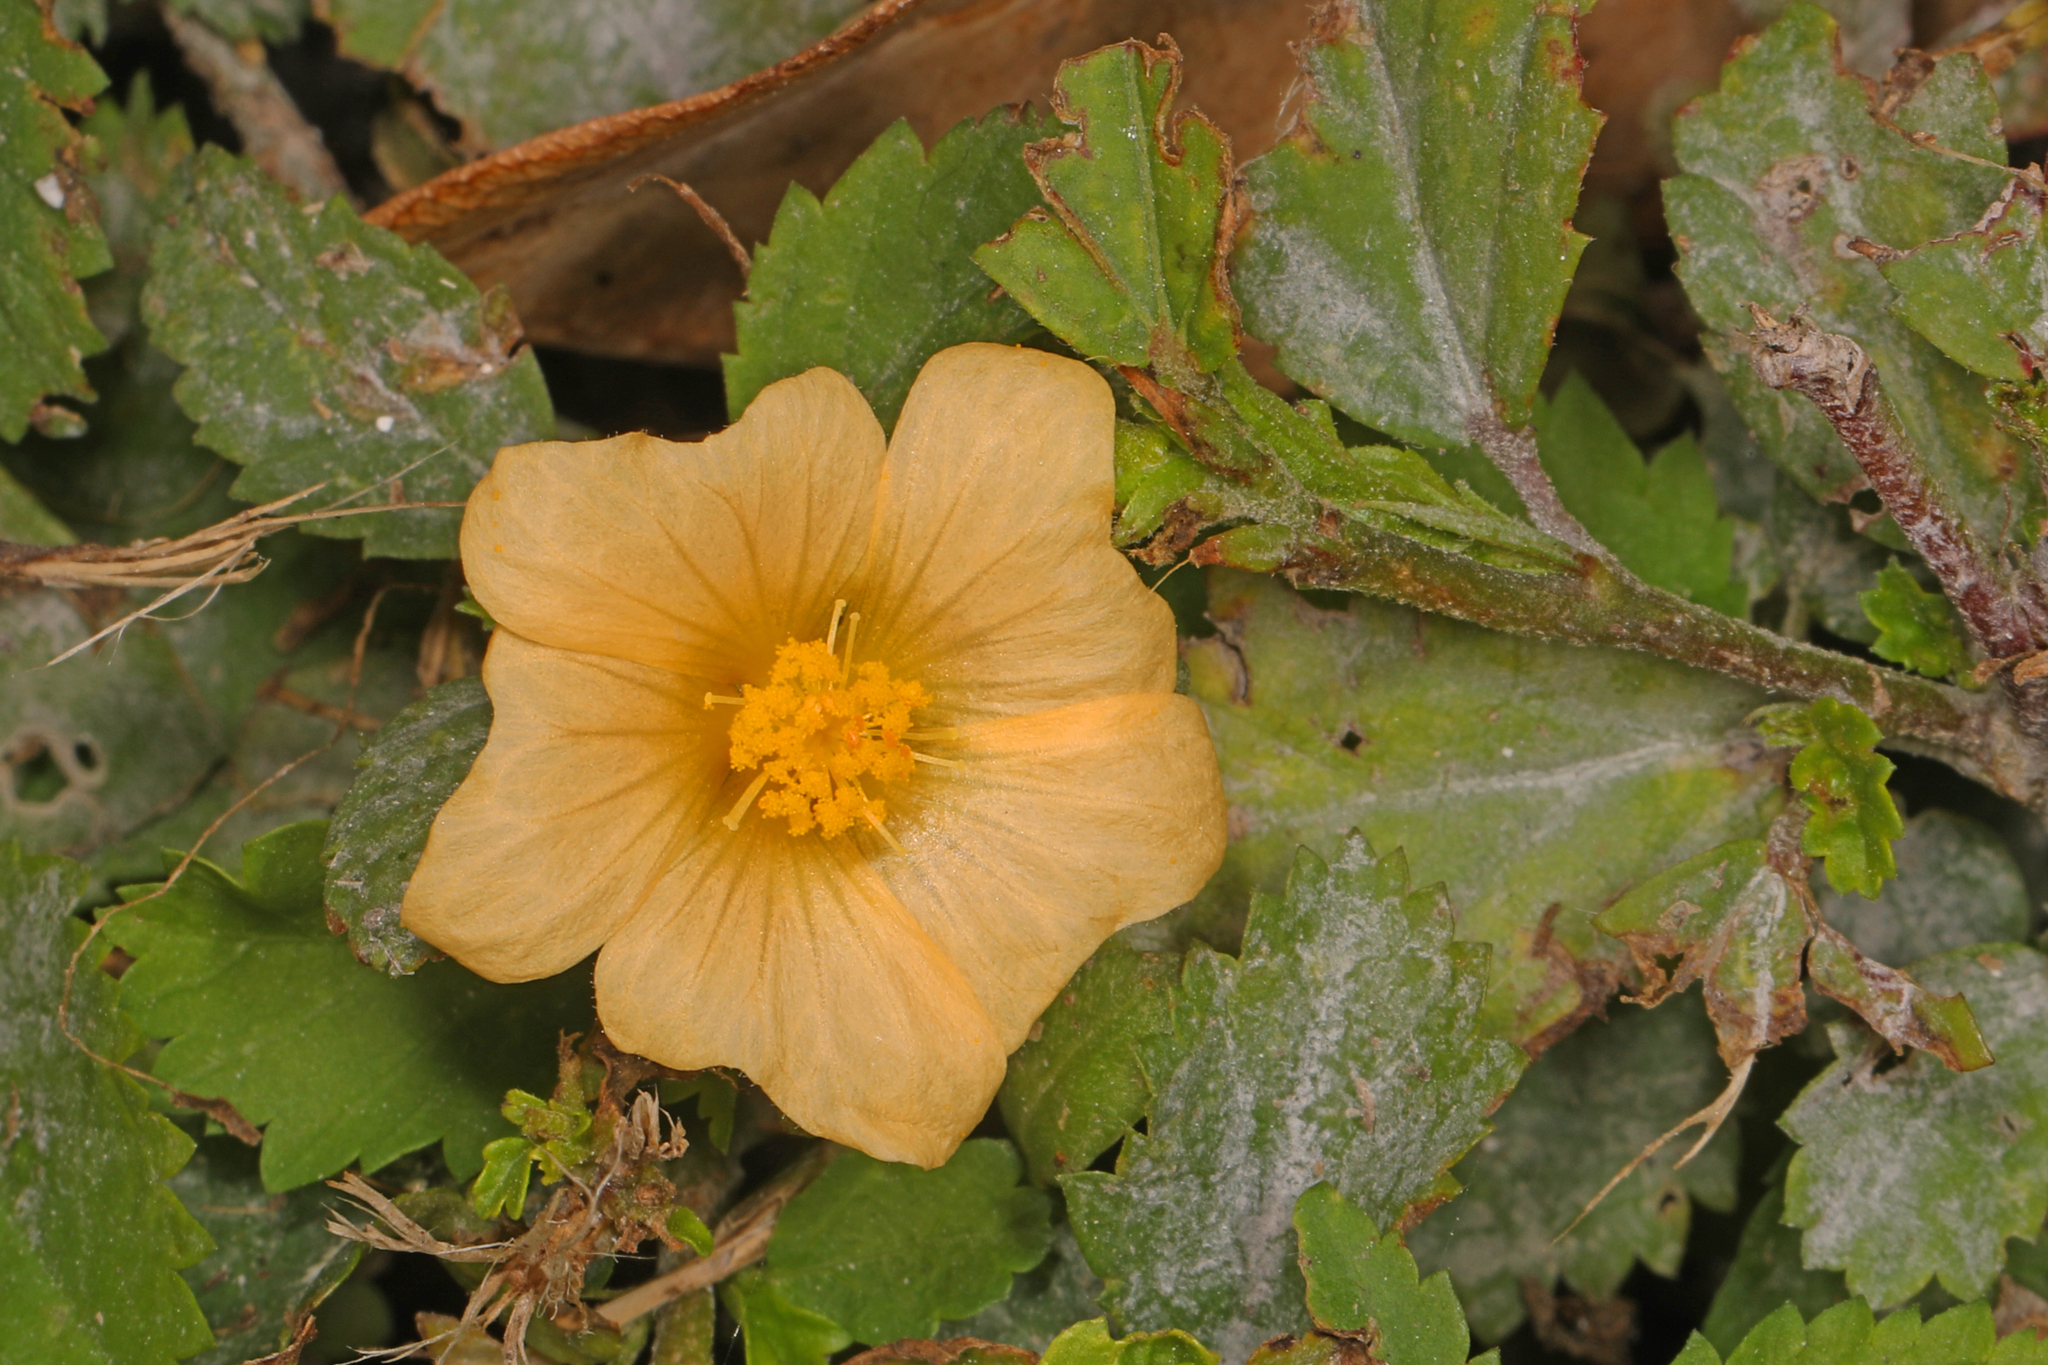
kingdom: Plantae
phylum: Tracheophyta
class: Magnoliopsida
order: Malvales
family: Malvaceae
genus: Sida
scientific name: Sida ulmifolia
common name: Broom weed
